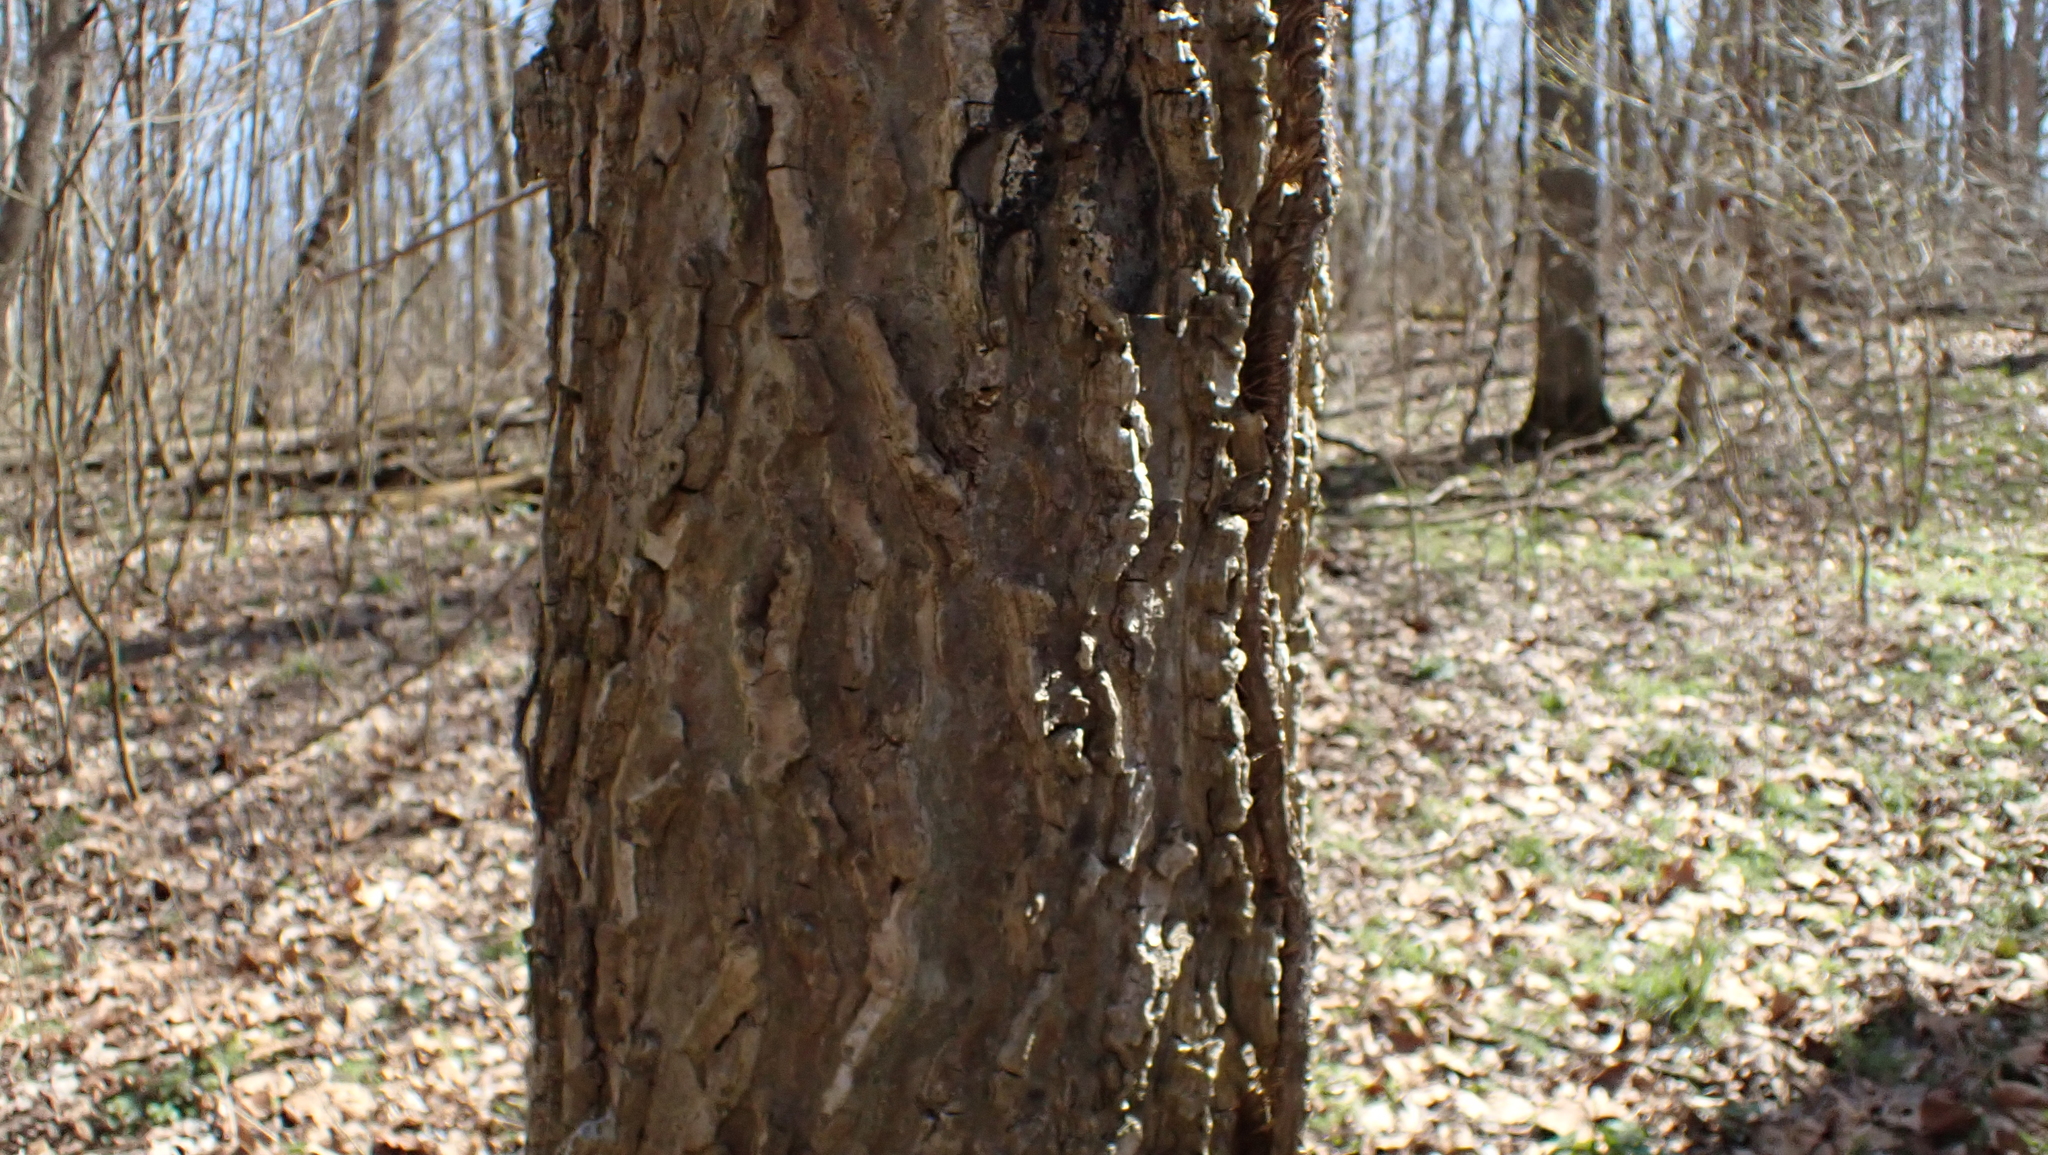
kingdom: Plantae
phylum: Tracheophyta
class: Magnoliopsida
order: Rosales
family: Cannabaceae
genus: Celtis
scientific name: Celtis occidentalis
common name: Common hackberry
